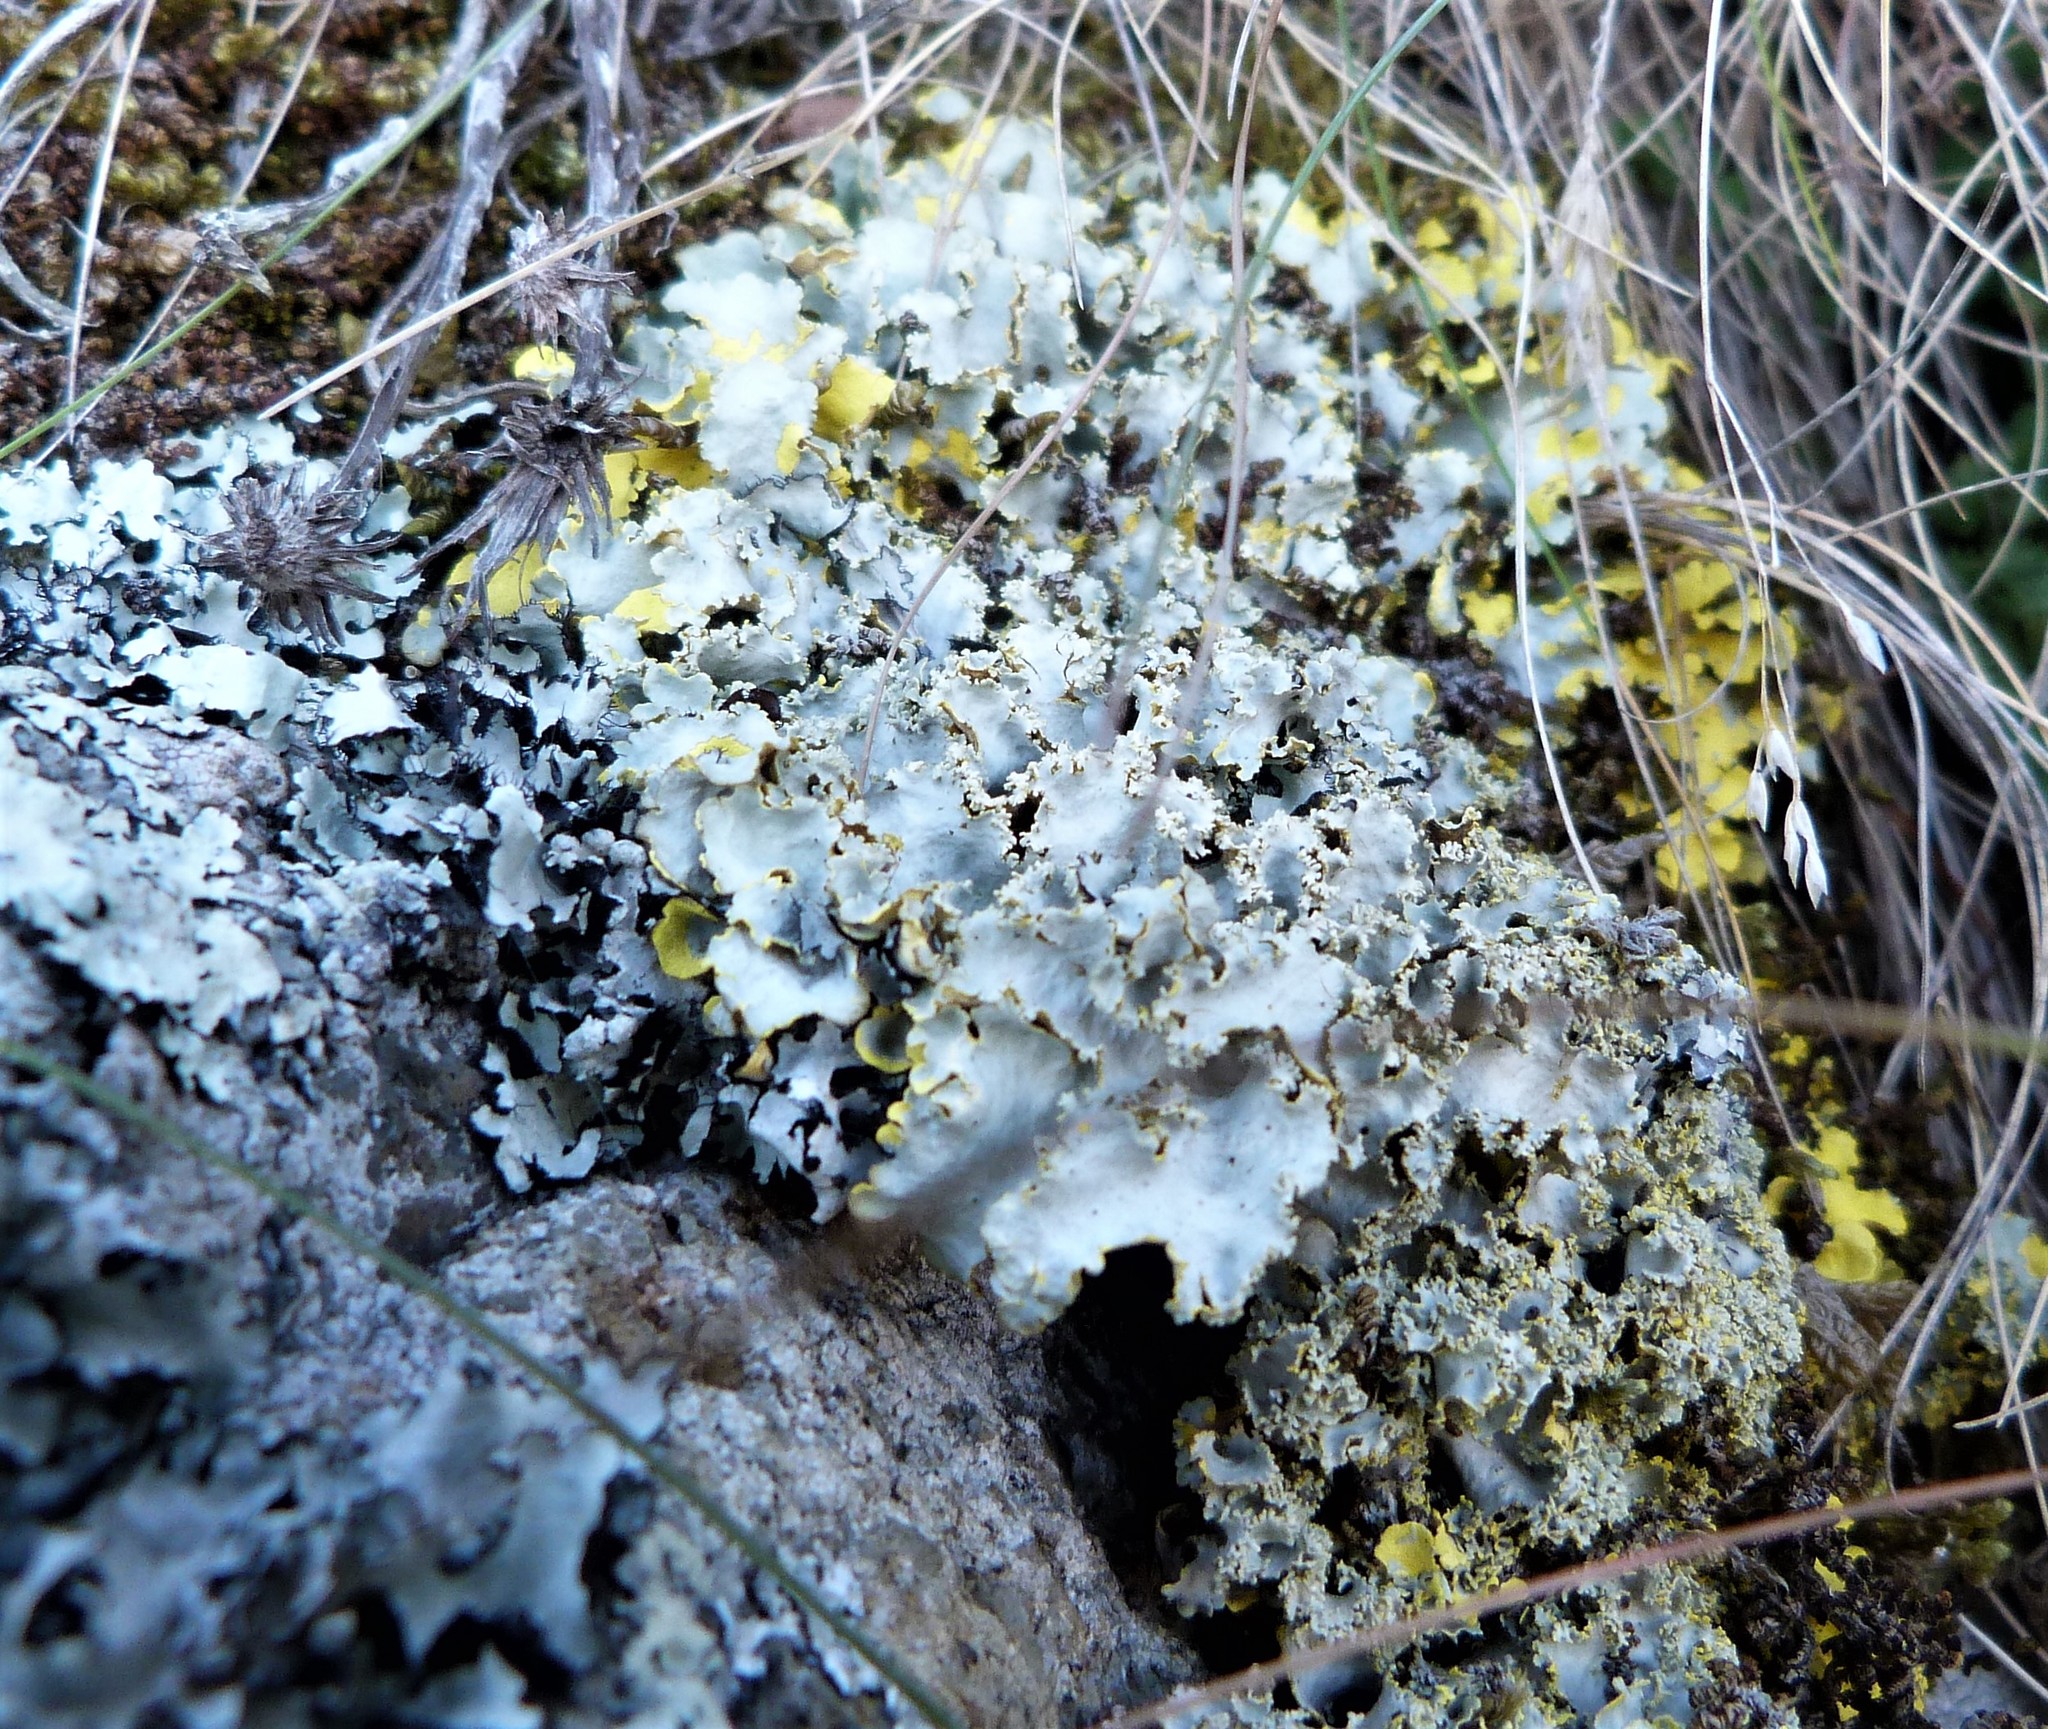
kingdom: Fungi
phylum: Ascomycota
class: Lecanoromycetes
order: Peltigerales
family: Lobariaceae
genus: Podostictina
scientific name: Podostictina pickeringii
